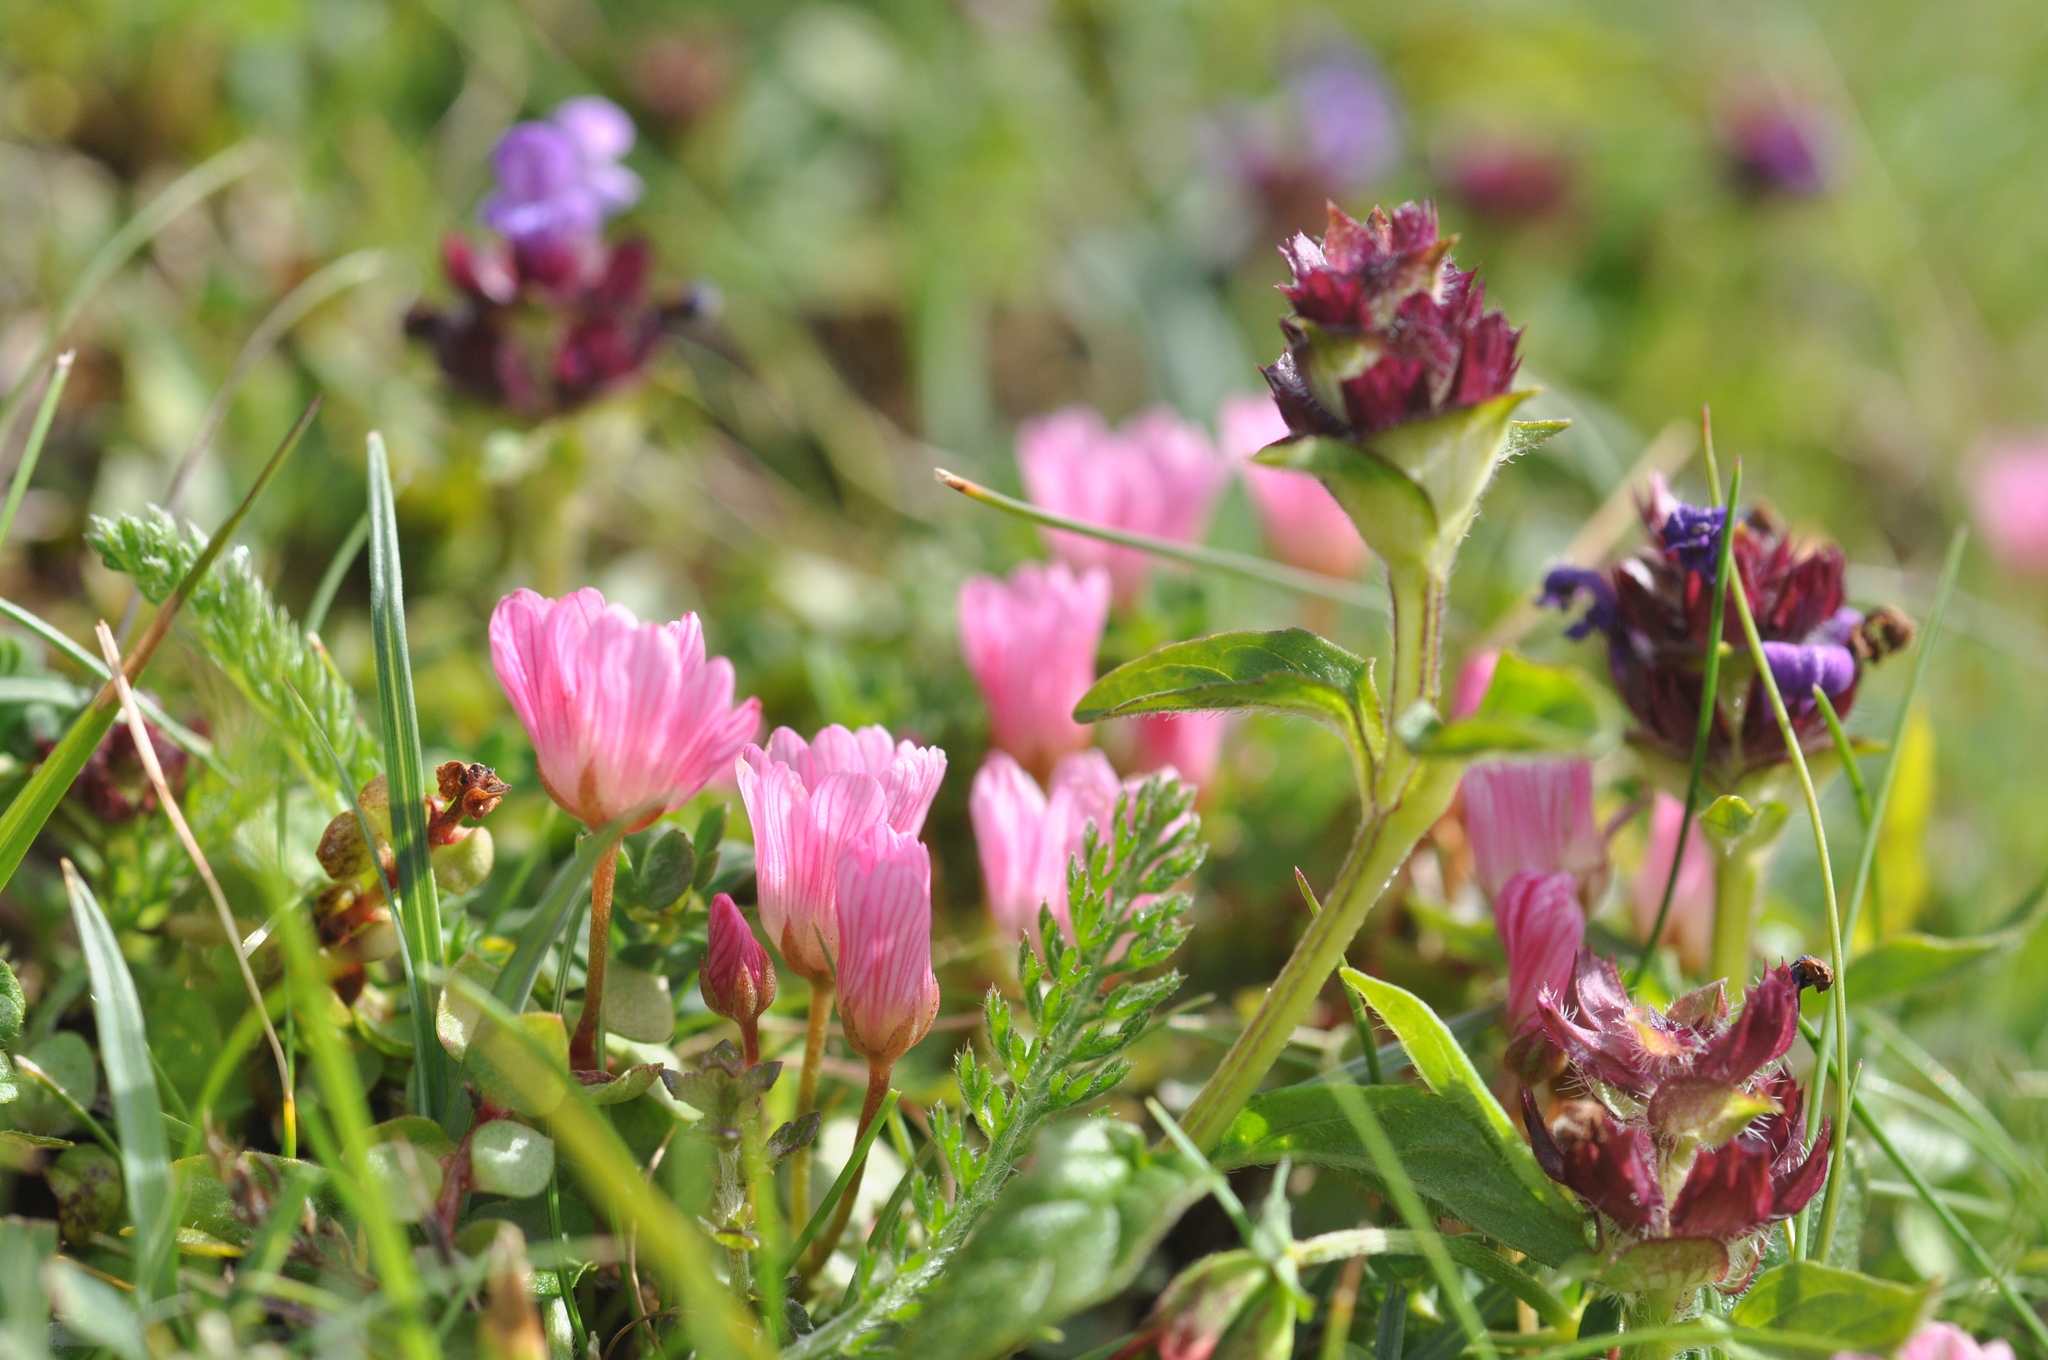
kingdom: Plantae
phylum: Tracheophyta
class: Magnoliopsida
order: Ericales
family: Primulaceae
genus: Lysimachia
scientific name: Lysimachia tenella
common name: European bog pimpernel
